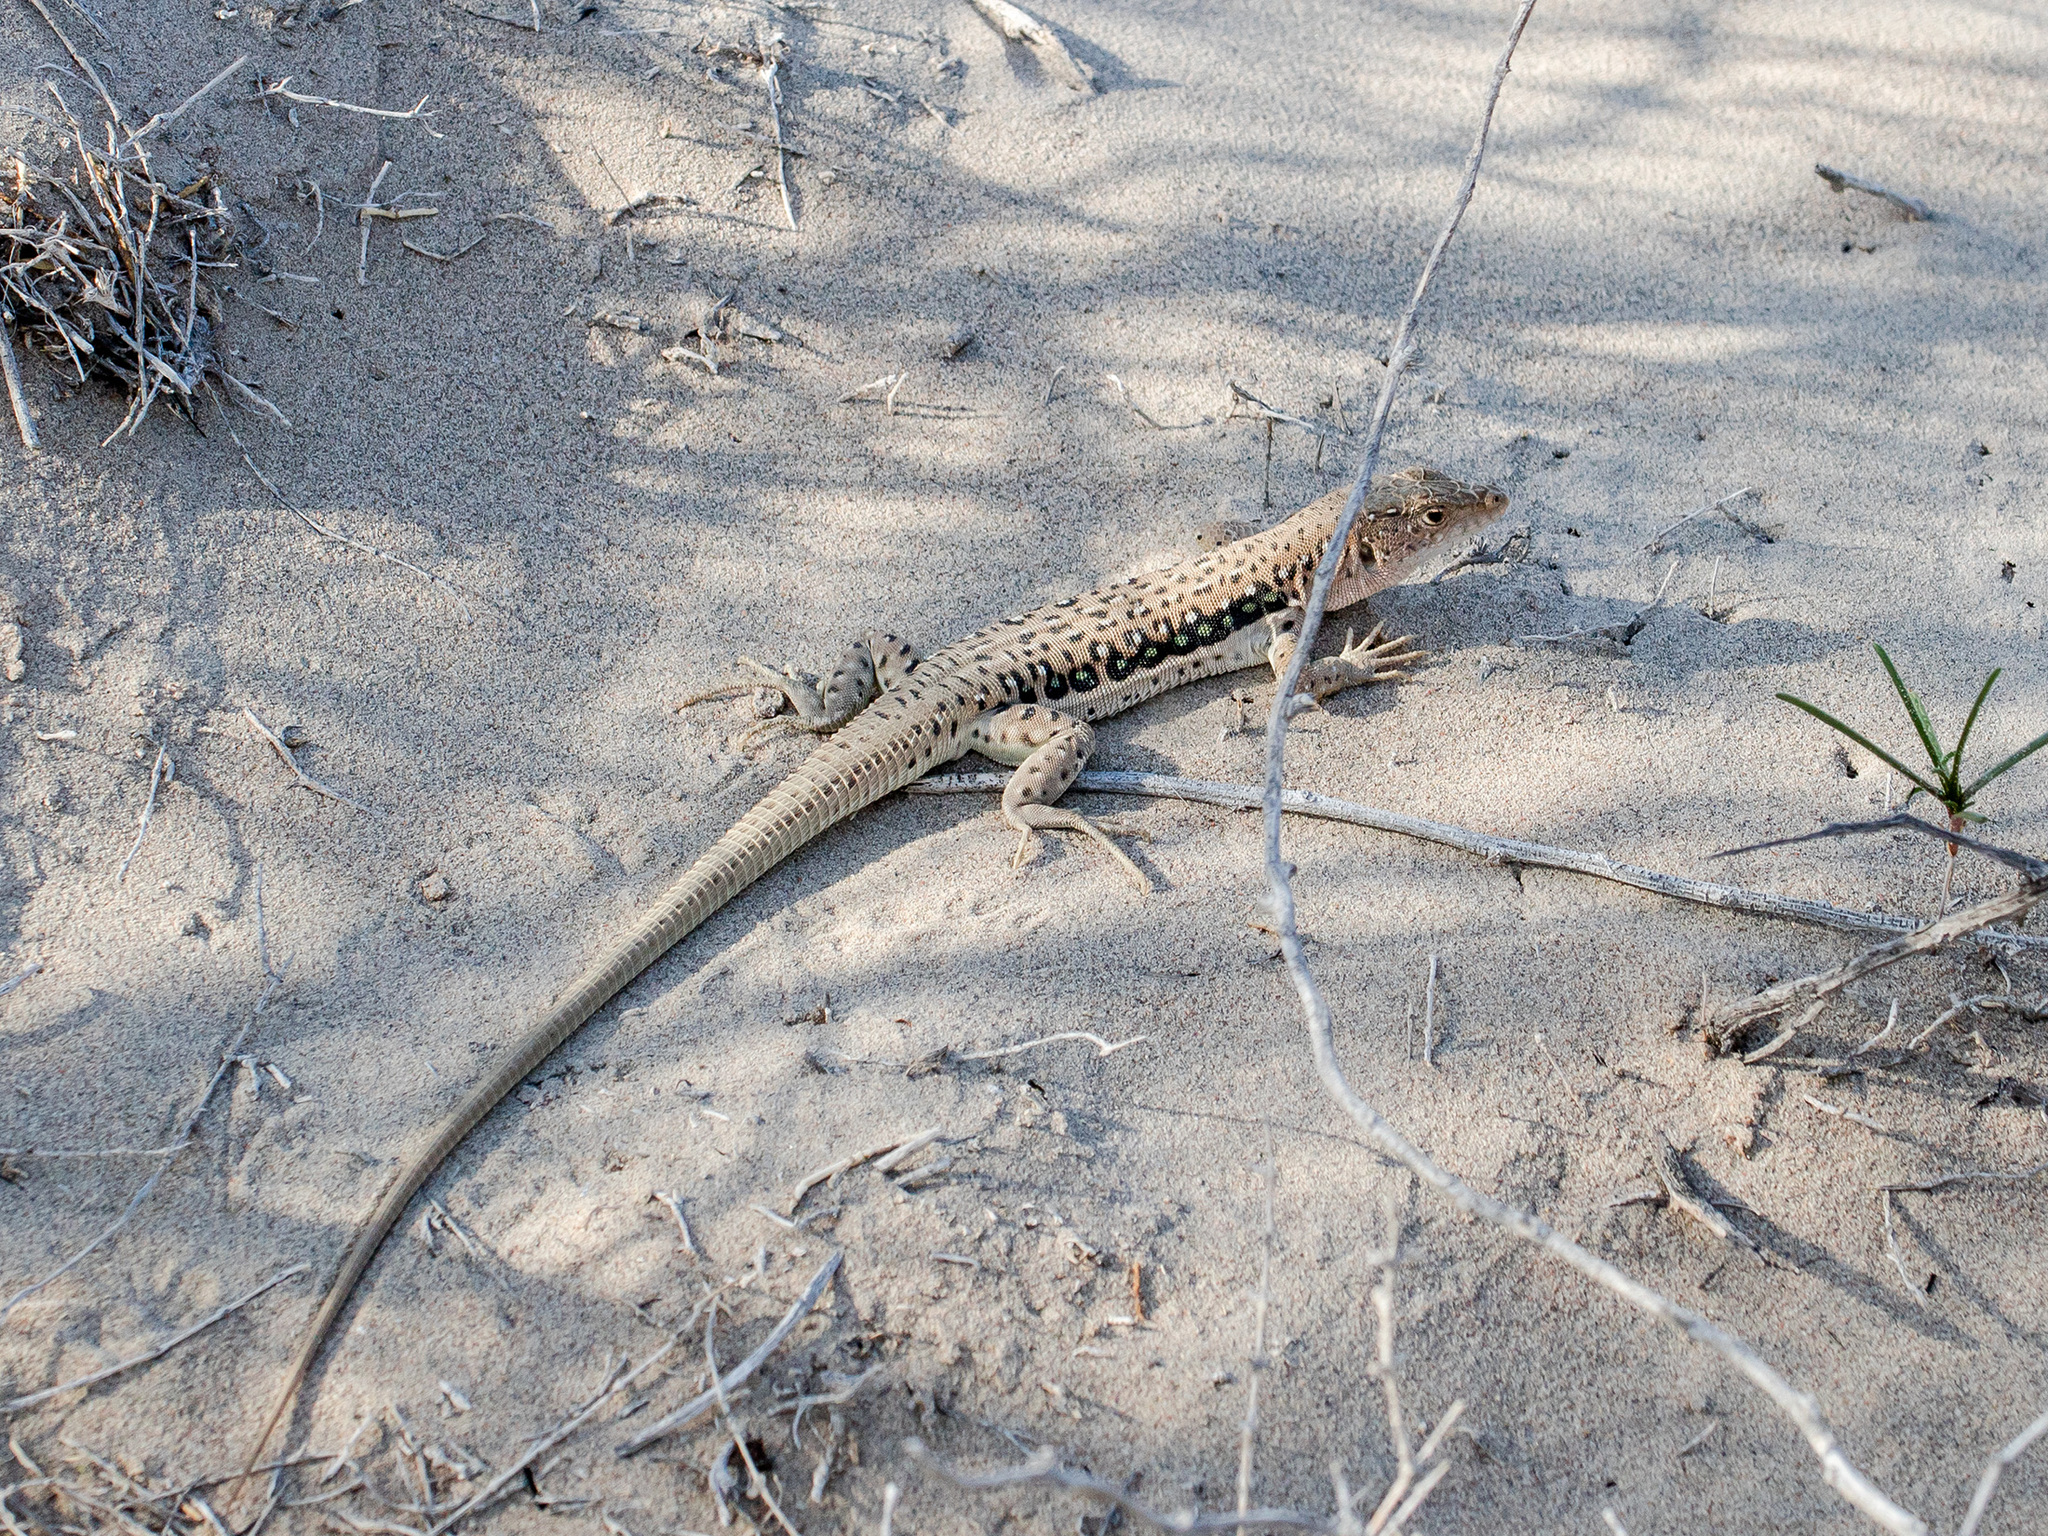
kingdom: Animalia
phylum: Chordata
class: Squamata
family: Lacertidae
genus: Eremias
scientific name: Eremias velox
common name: Central asian racerunner
